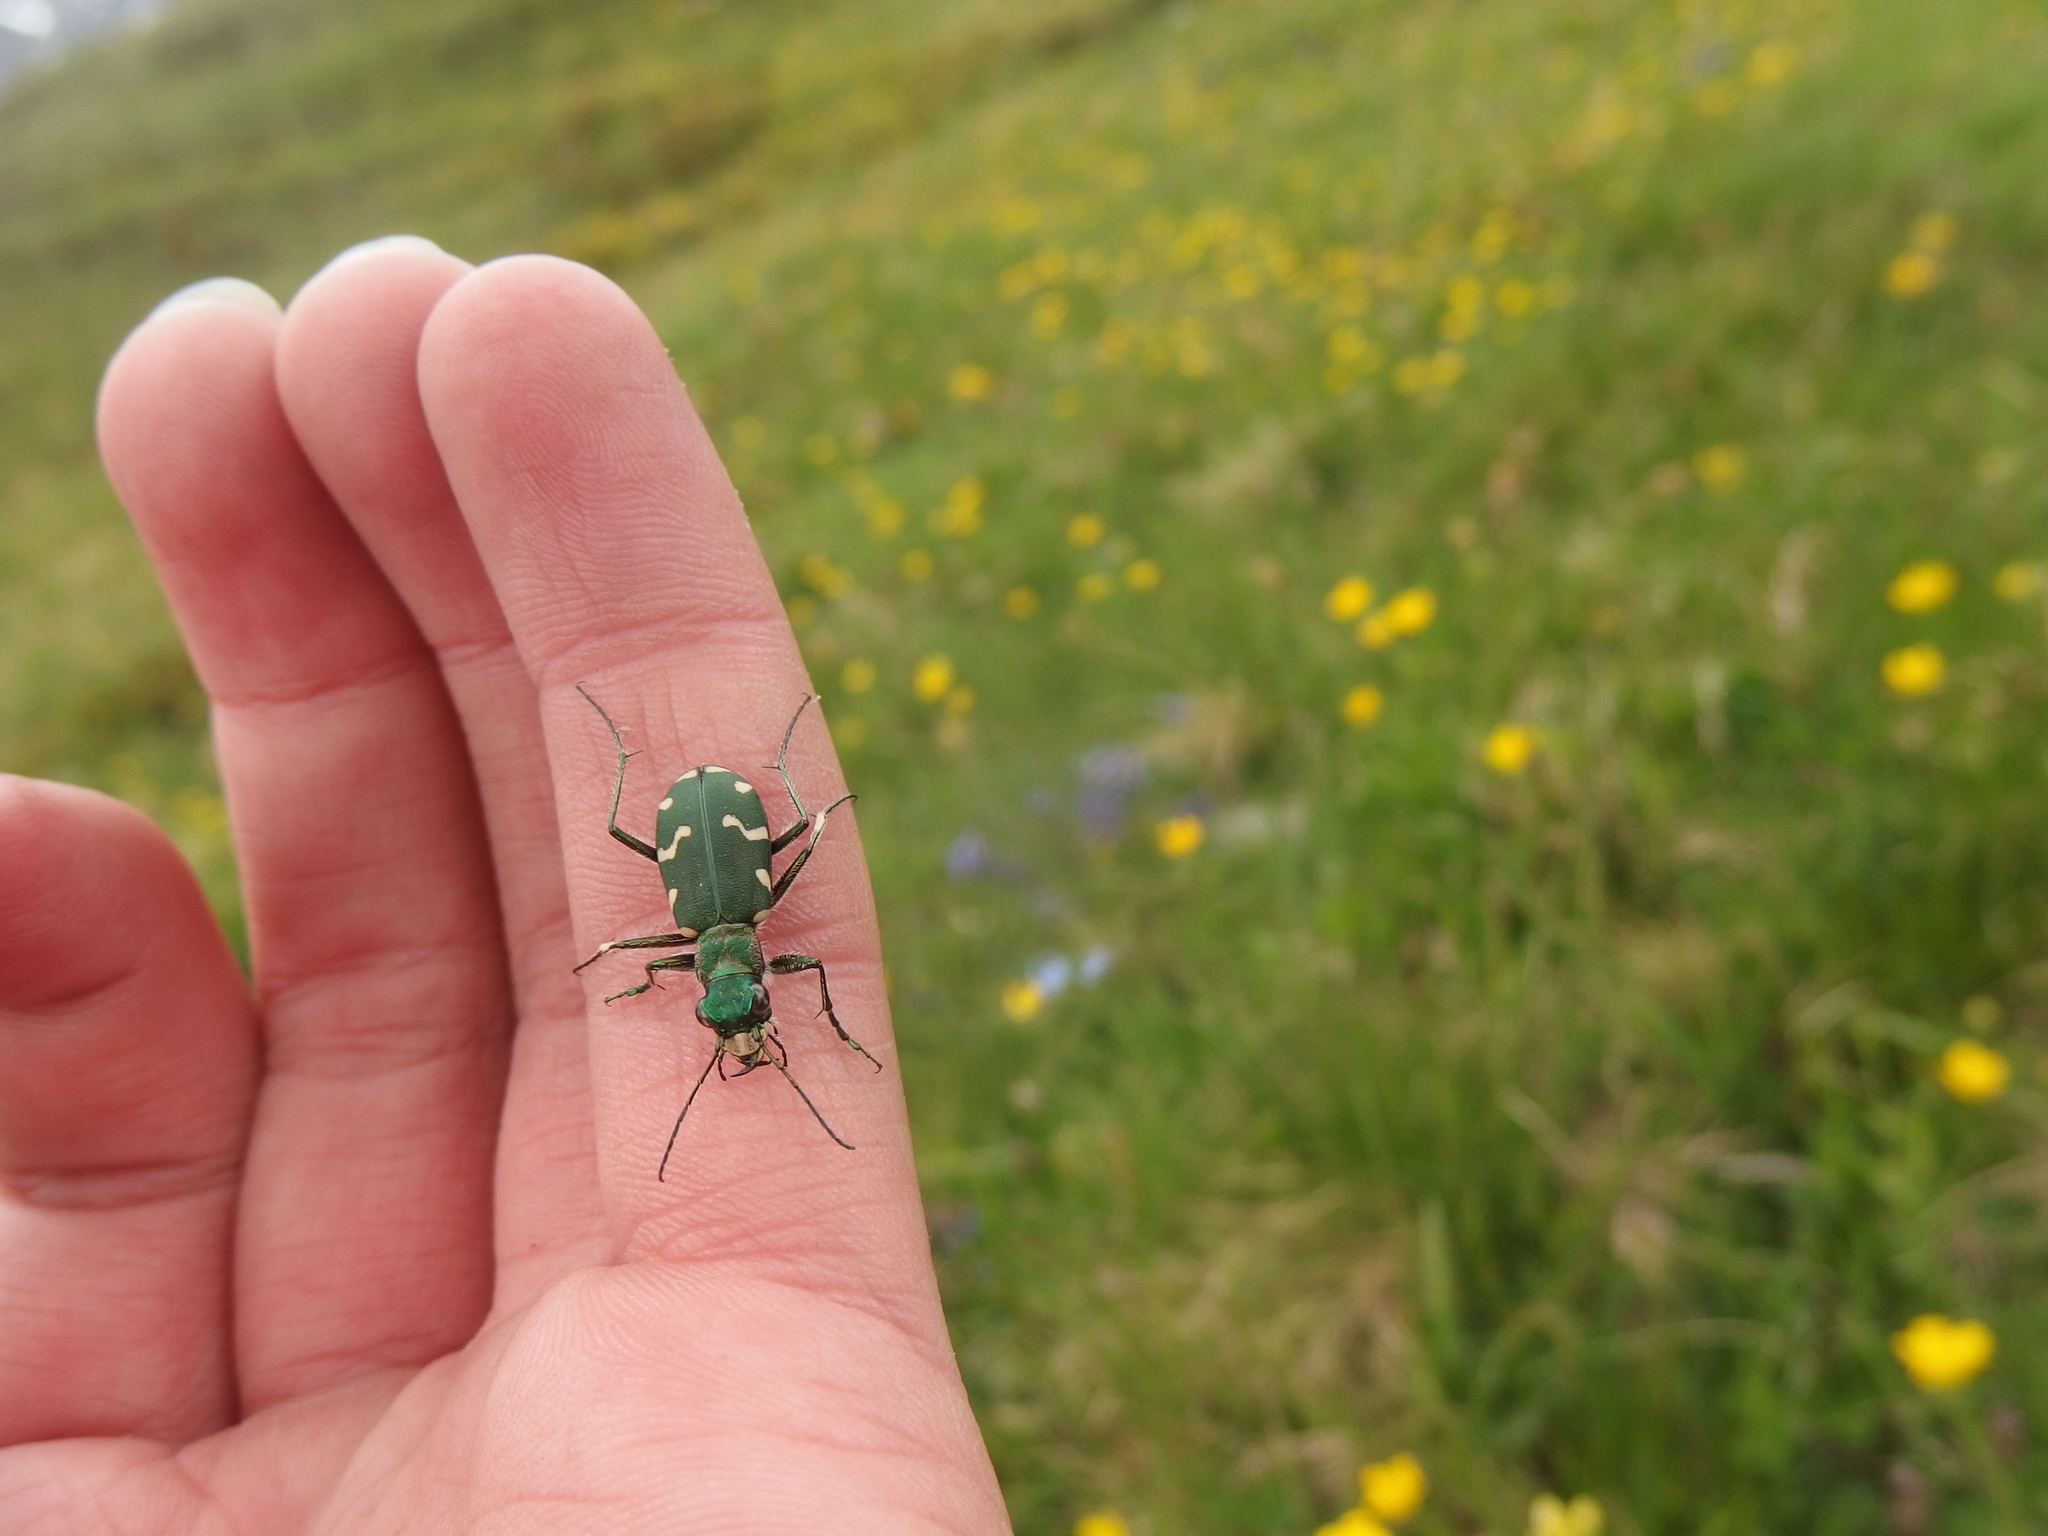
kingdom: Animalia
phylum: Arthropoda
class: Insecta
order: Coleoptera
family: Carabidae
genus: Cicindela
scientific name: Cicindela gallica
